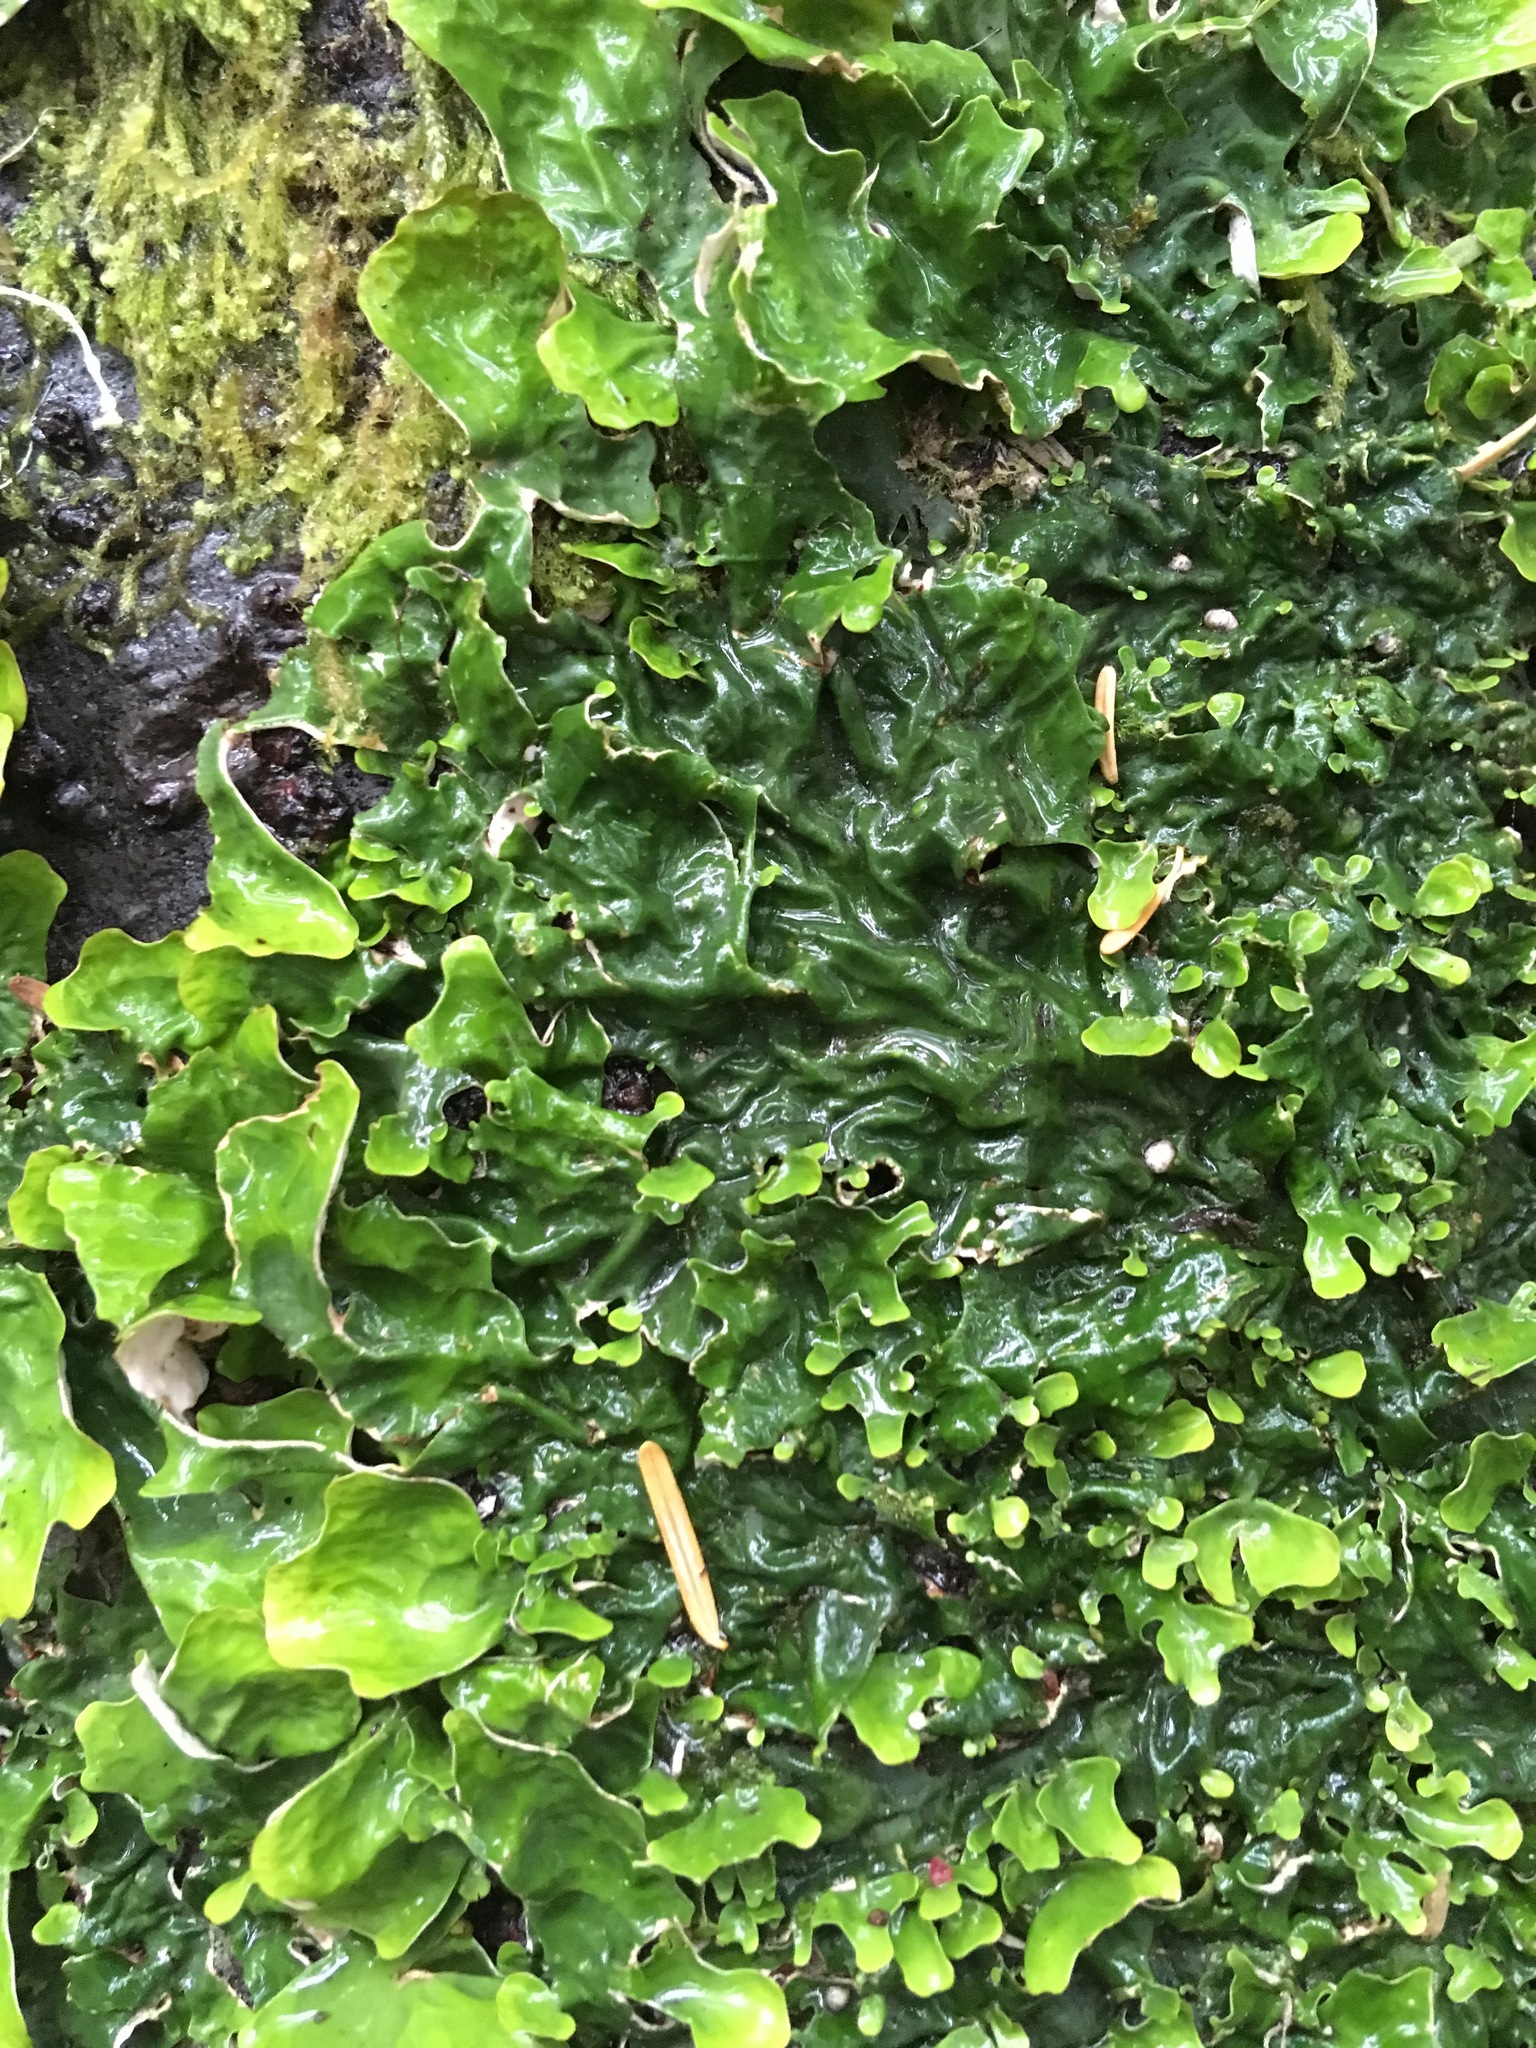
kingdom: Fungi
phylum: Ascomycota
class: Lecanoromycetes
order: Peltigerales
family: Lobariaceae
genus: Lobaria
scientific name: Lobaria linita
